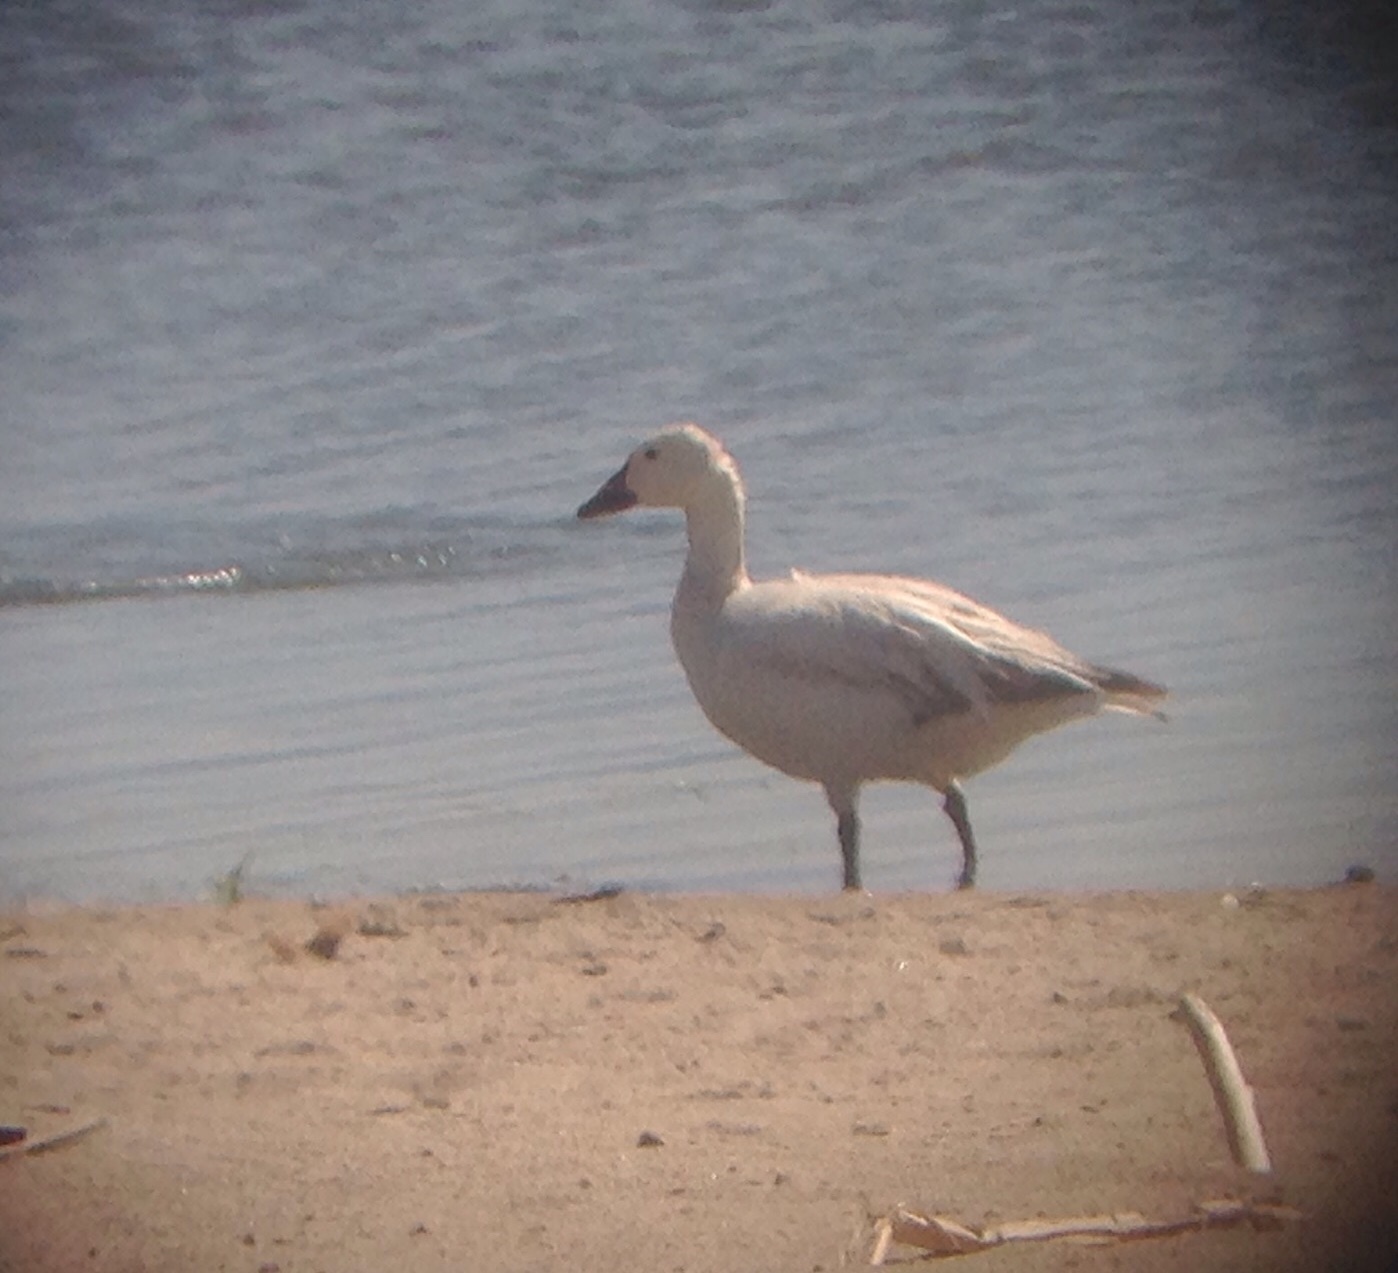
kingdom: Animalia
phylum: Chordata
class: Aves
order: Anseriformes
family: Anatidae
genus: Anser
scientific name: Anser caerulescens
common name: Snow goose
